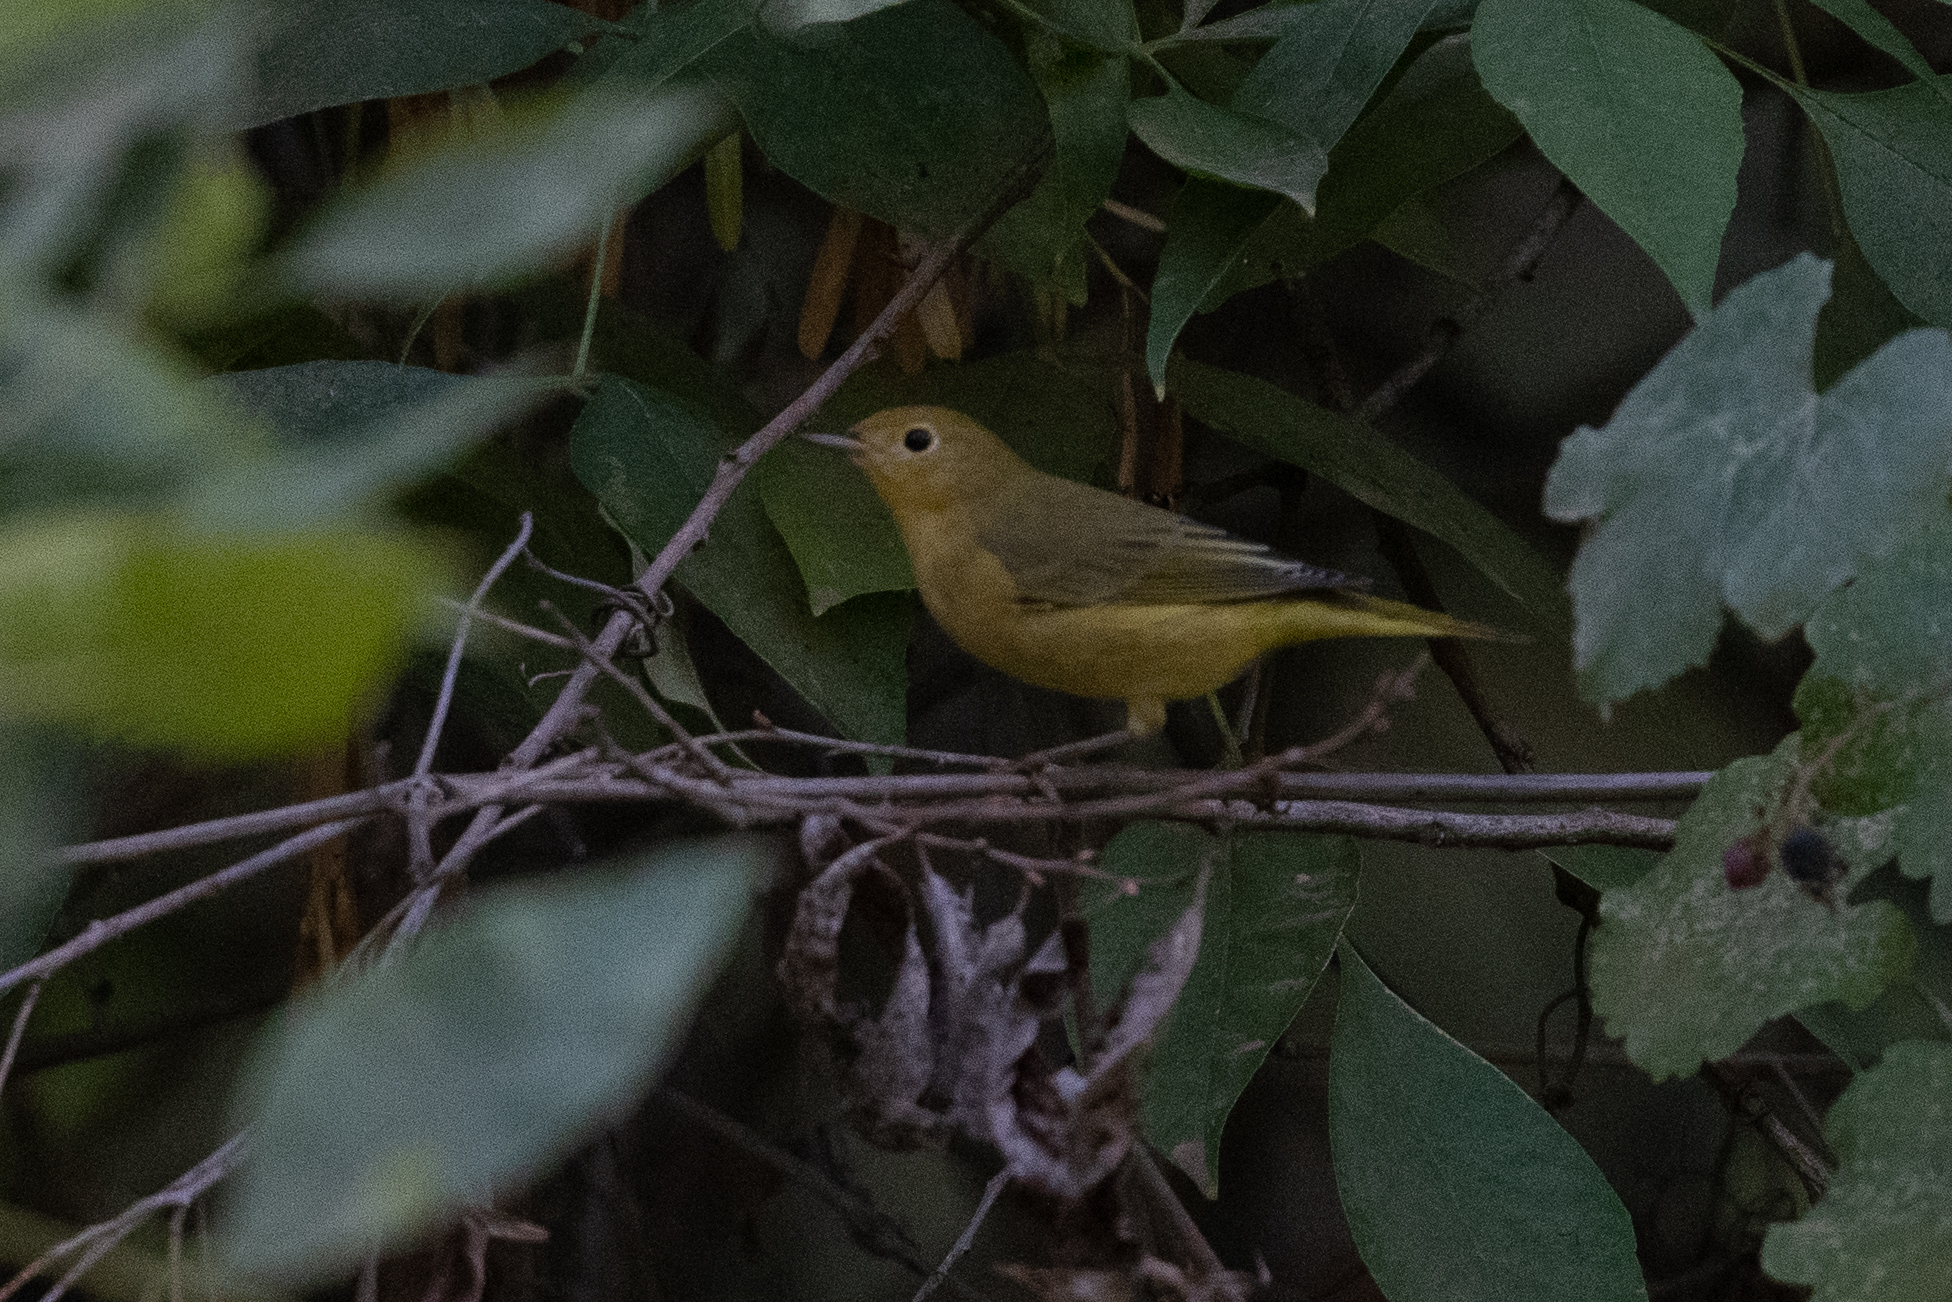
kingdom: Animalia
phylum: Chordata
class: Aves
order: Passeriformes
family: Parulidae
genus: Setophaga
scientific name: Setophaga petechia
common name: Yellow warbler
